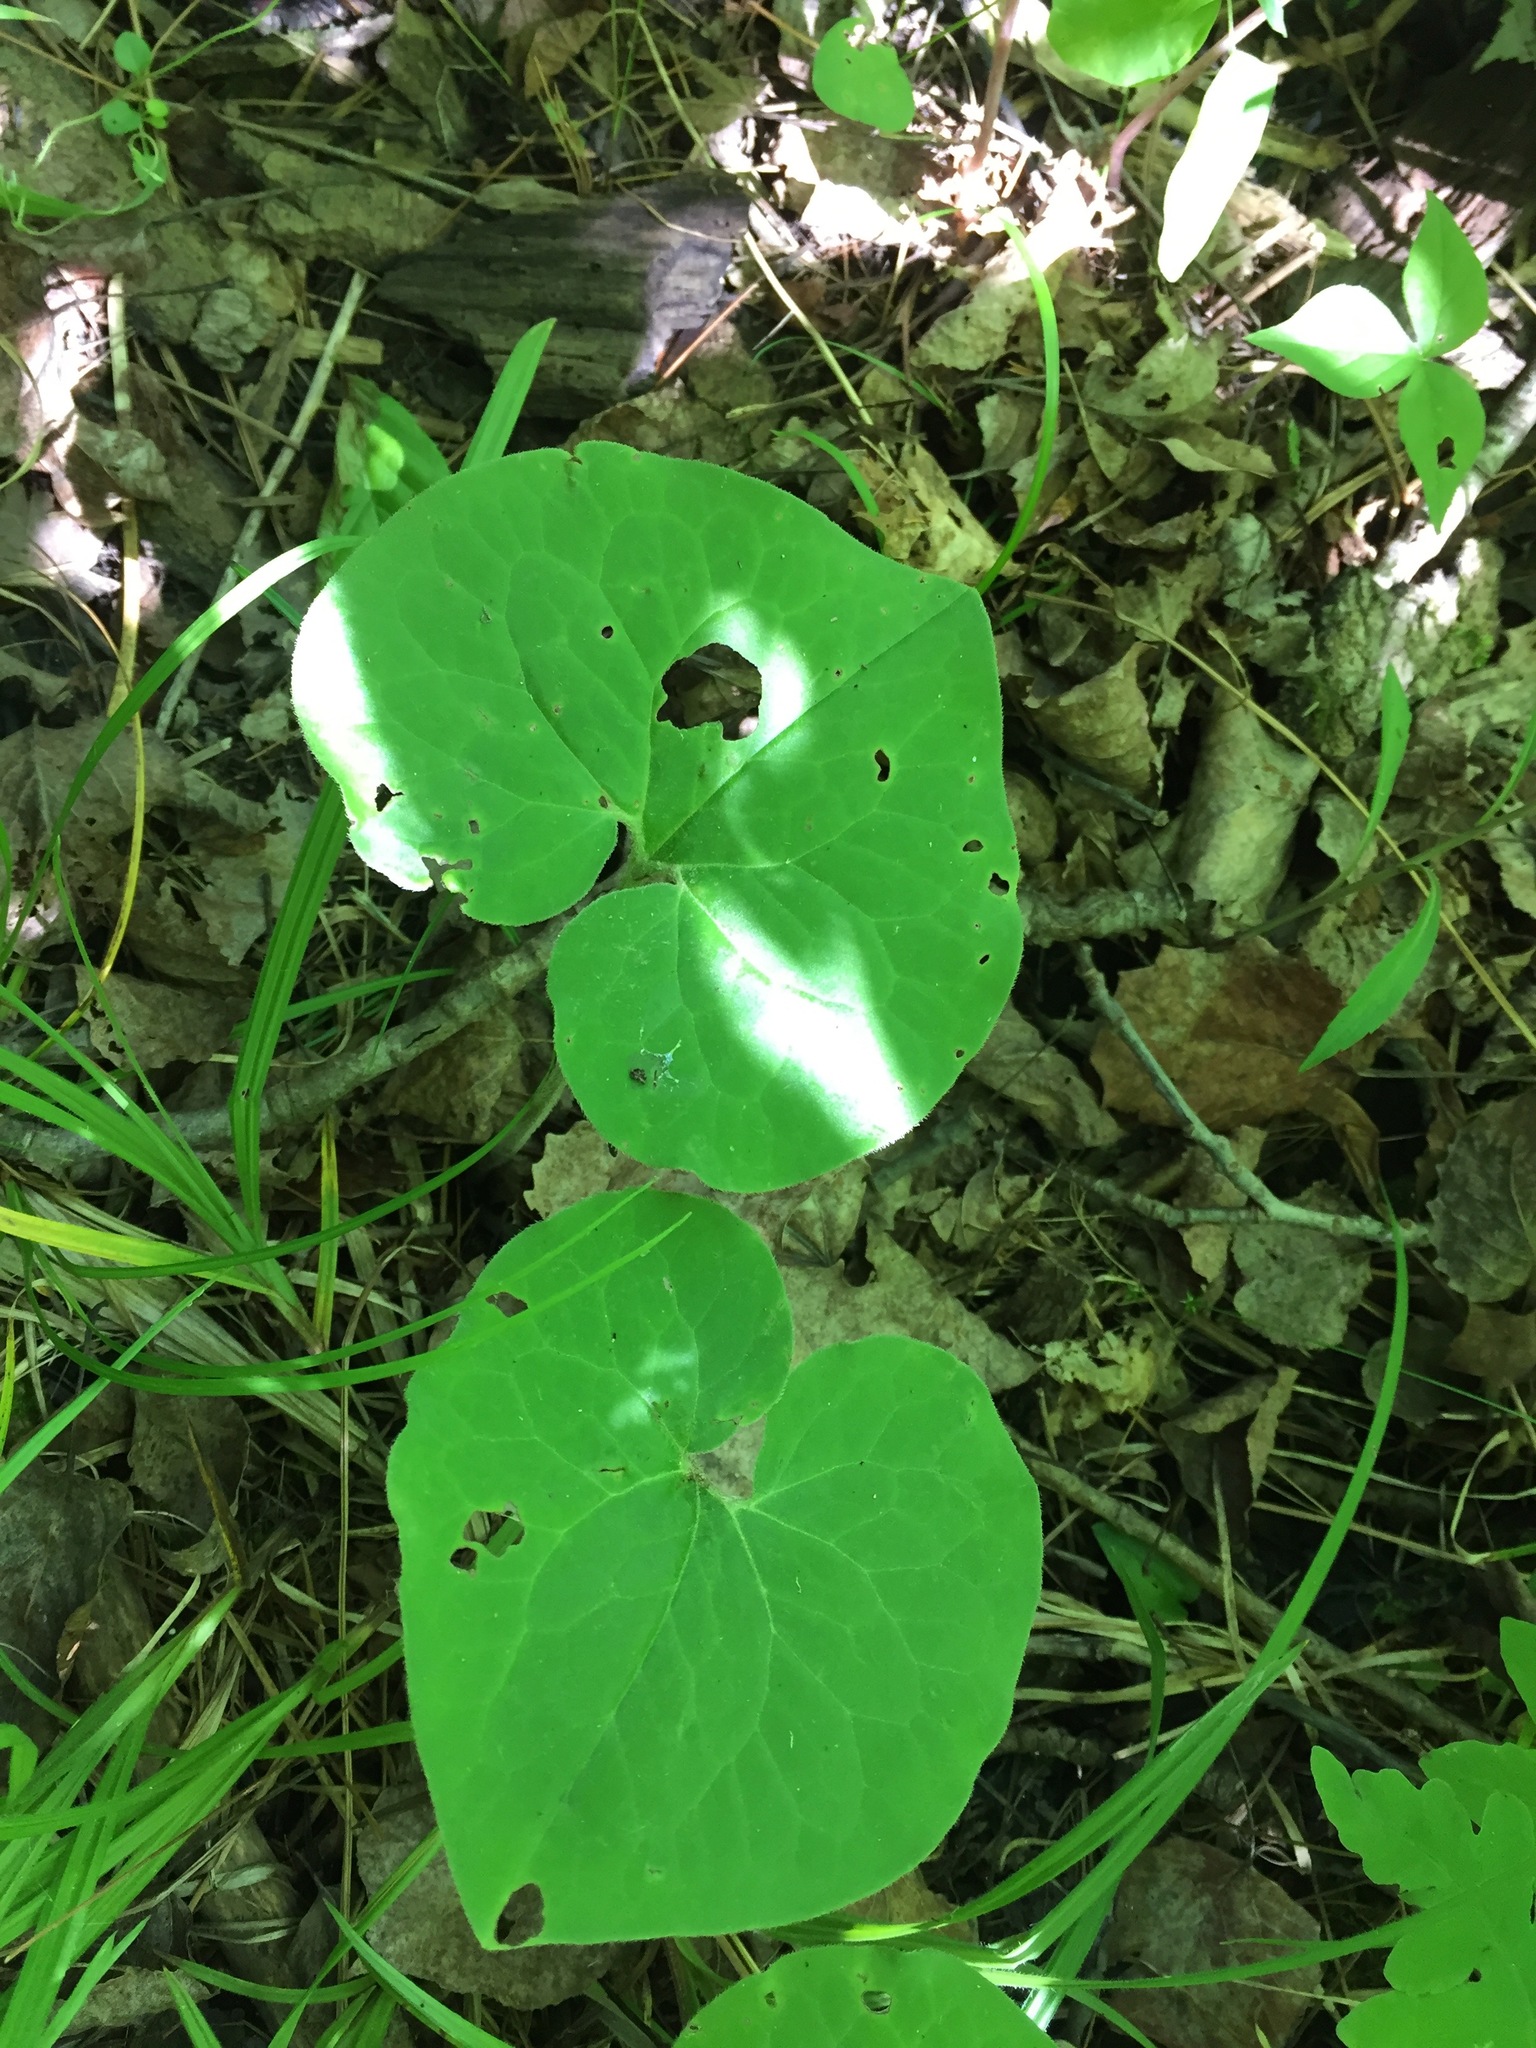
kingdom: Plantae
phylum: Tracheophyta
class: Magnoliopsida
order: Piperales
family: Aristolochiaceae
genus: Asarum
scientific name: Asarum canadense
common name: Wild ginger
